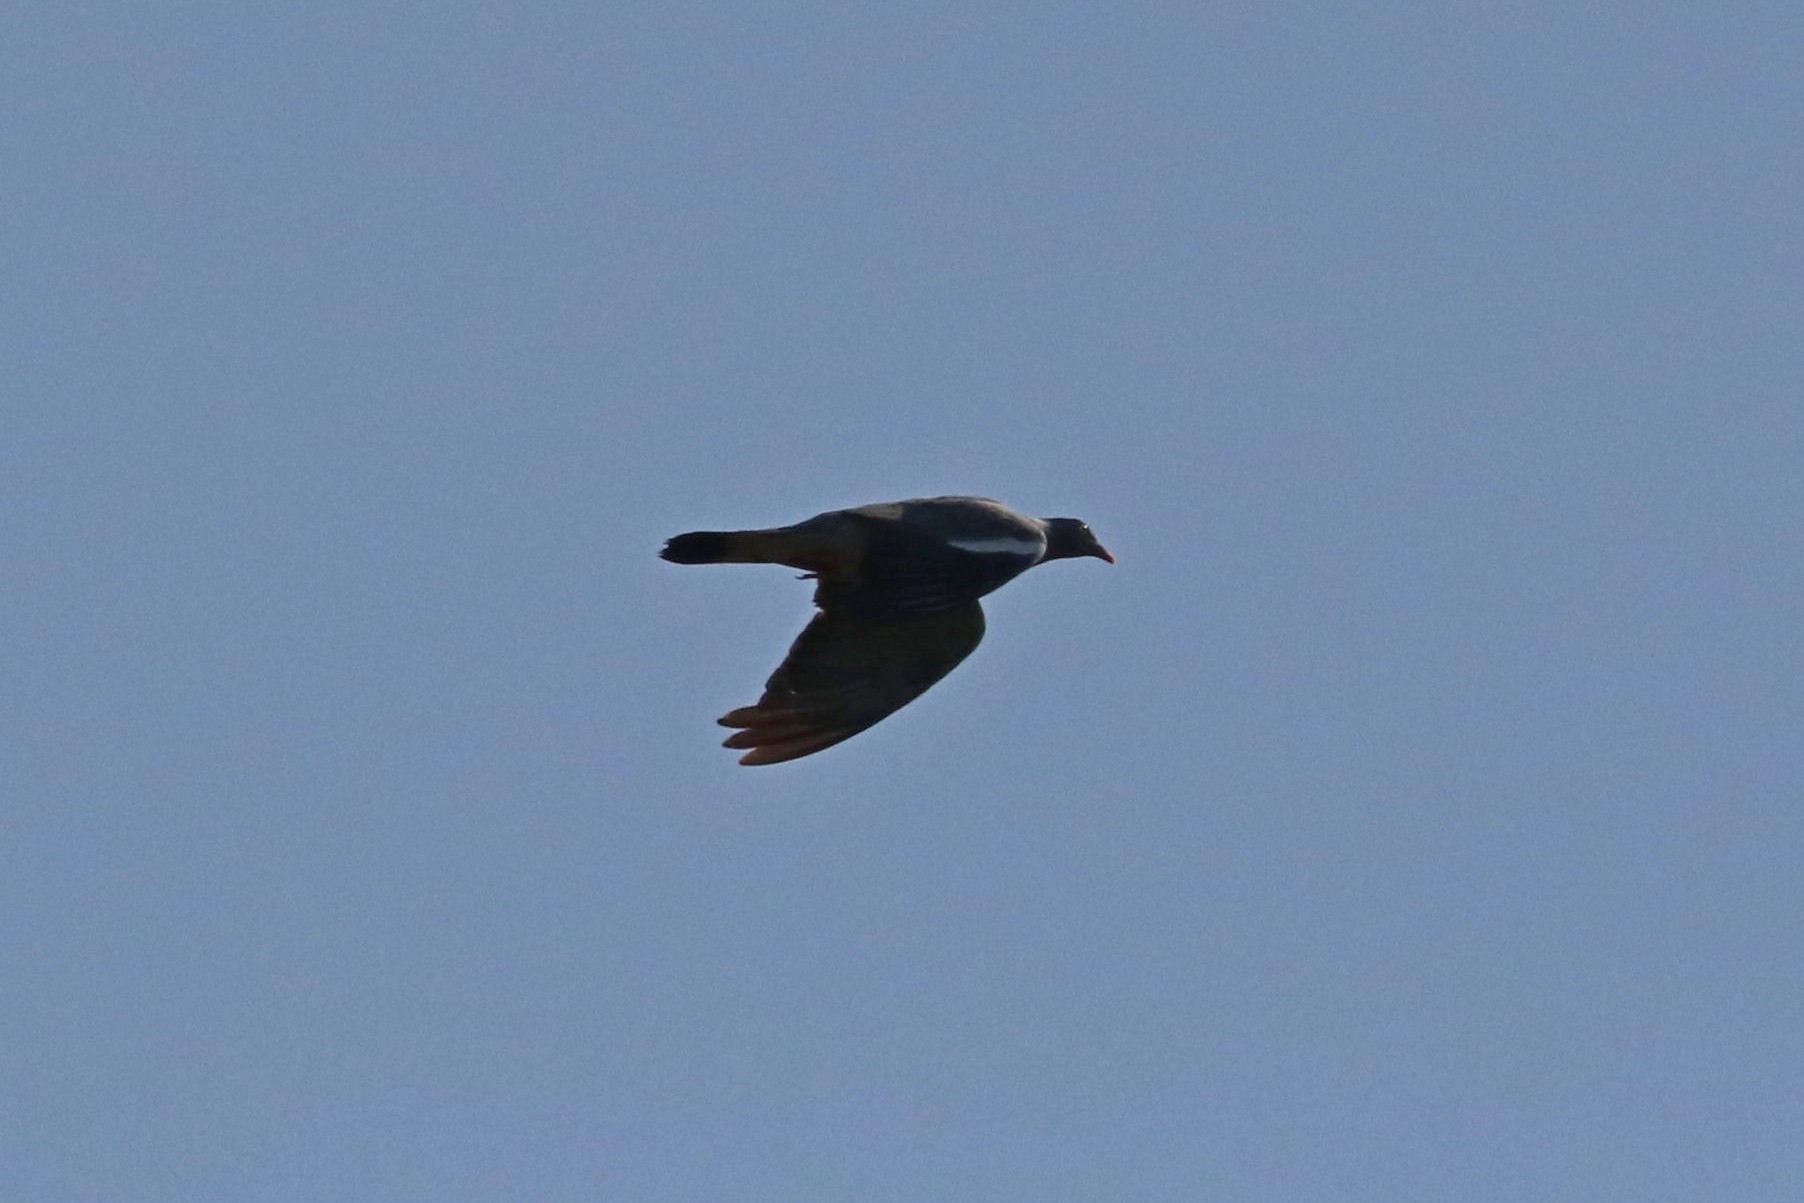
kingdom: Animalia
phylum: Chordata
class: Aves
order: Columbiformes
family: Columbidae
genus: Columba
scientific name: Columba palumbus
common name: Common wood pigeon
